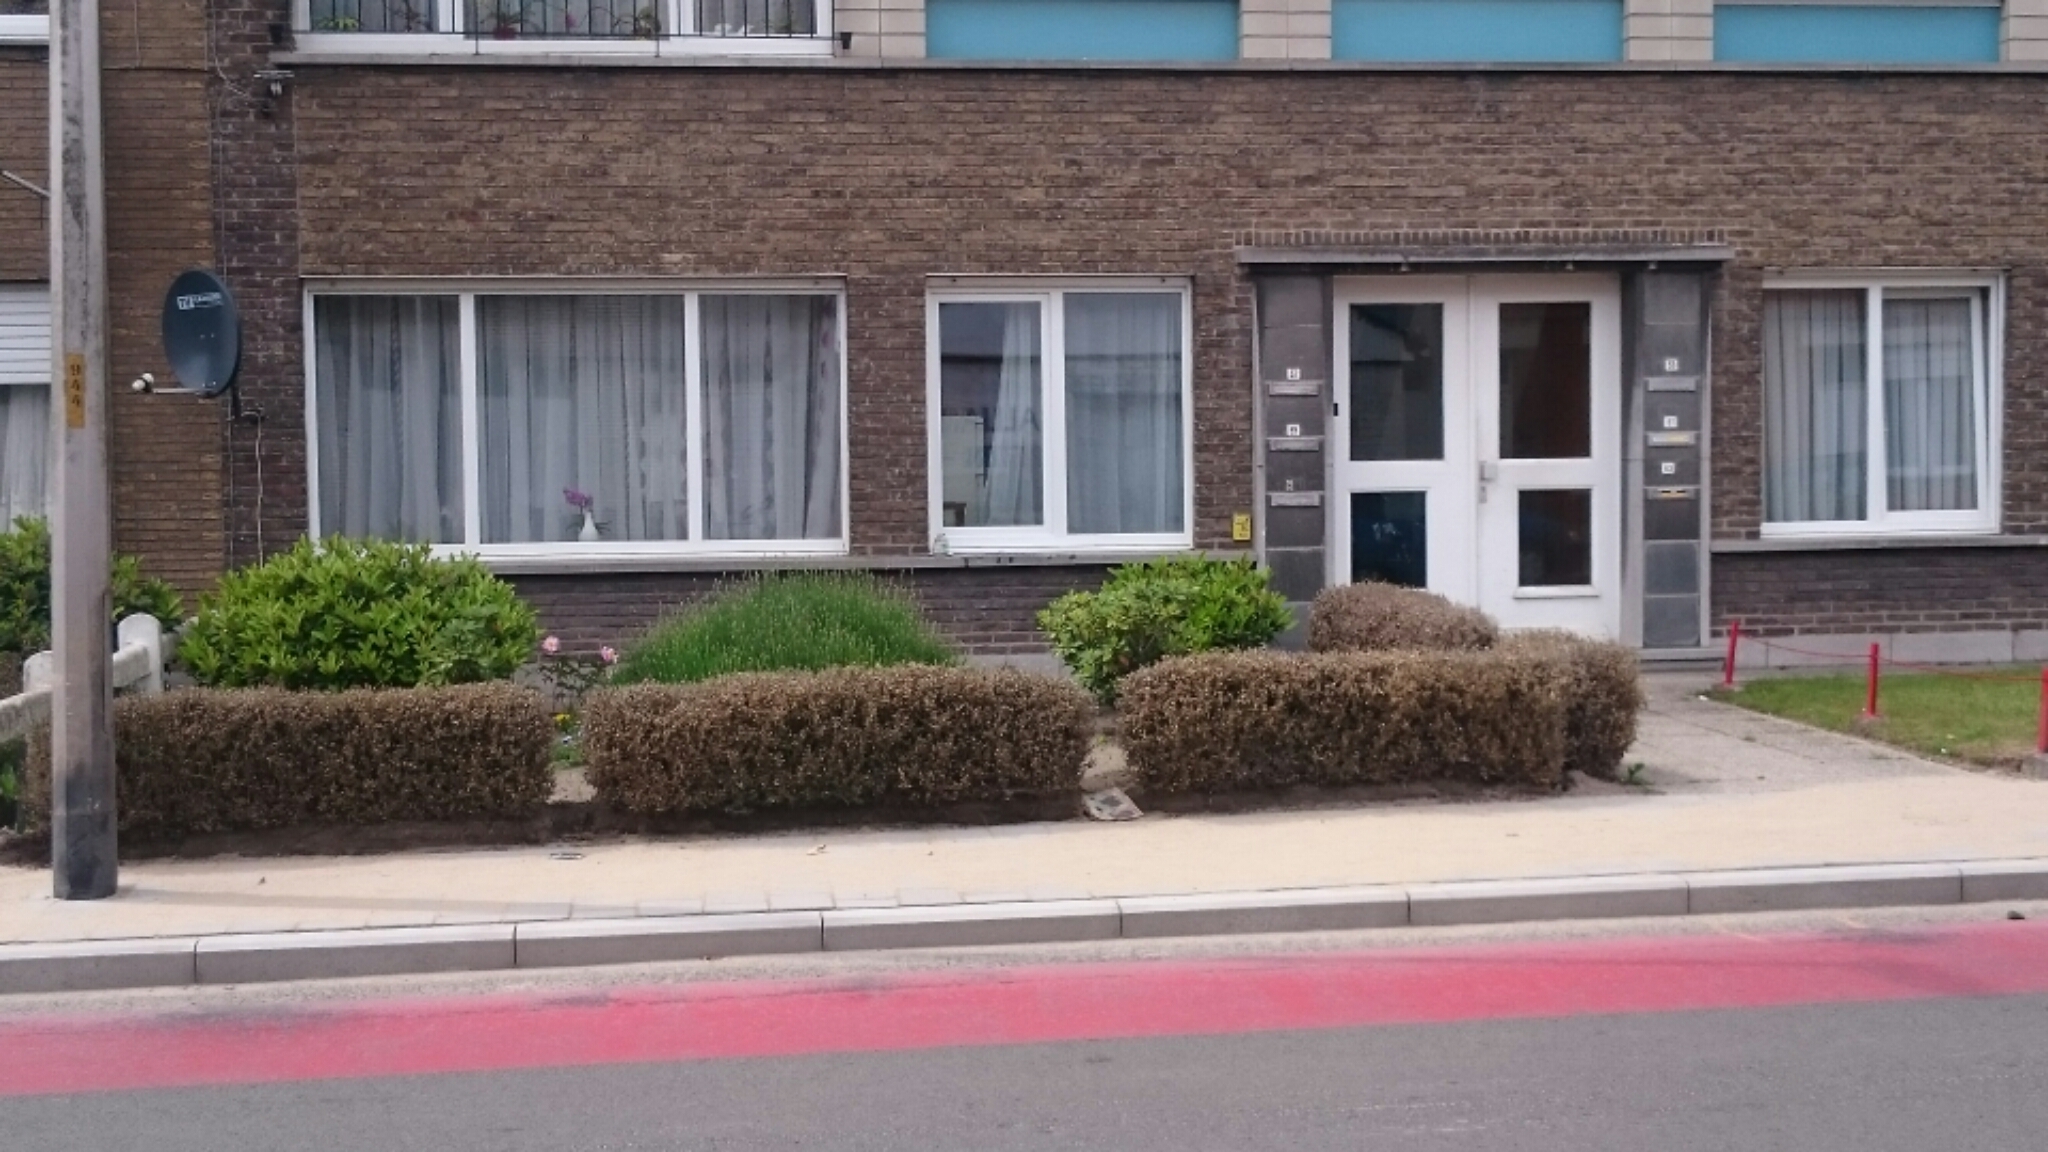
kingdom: Animalia
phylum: Arthropoda
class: Insecta
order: Lepidoptera
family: Crambidae
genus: Cydalima
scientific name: Cydalima perspectalis
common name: Box tree moth
